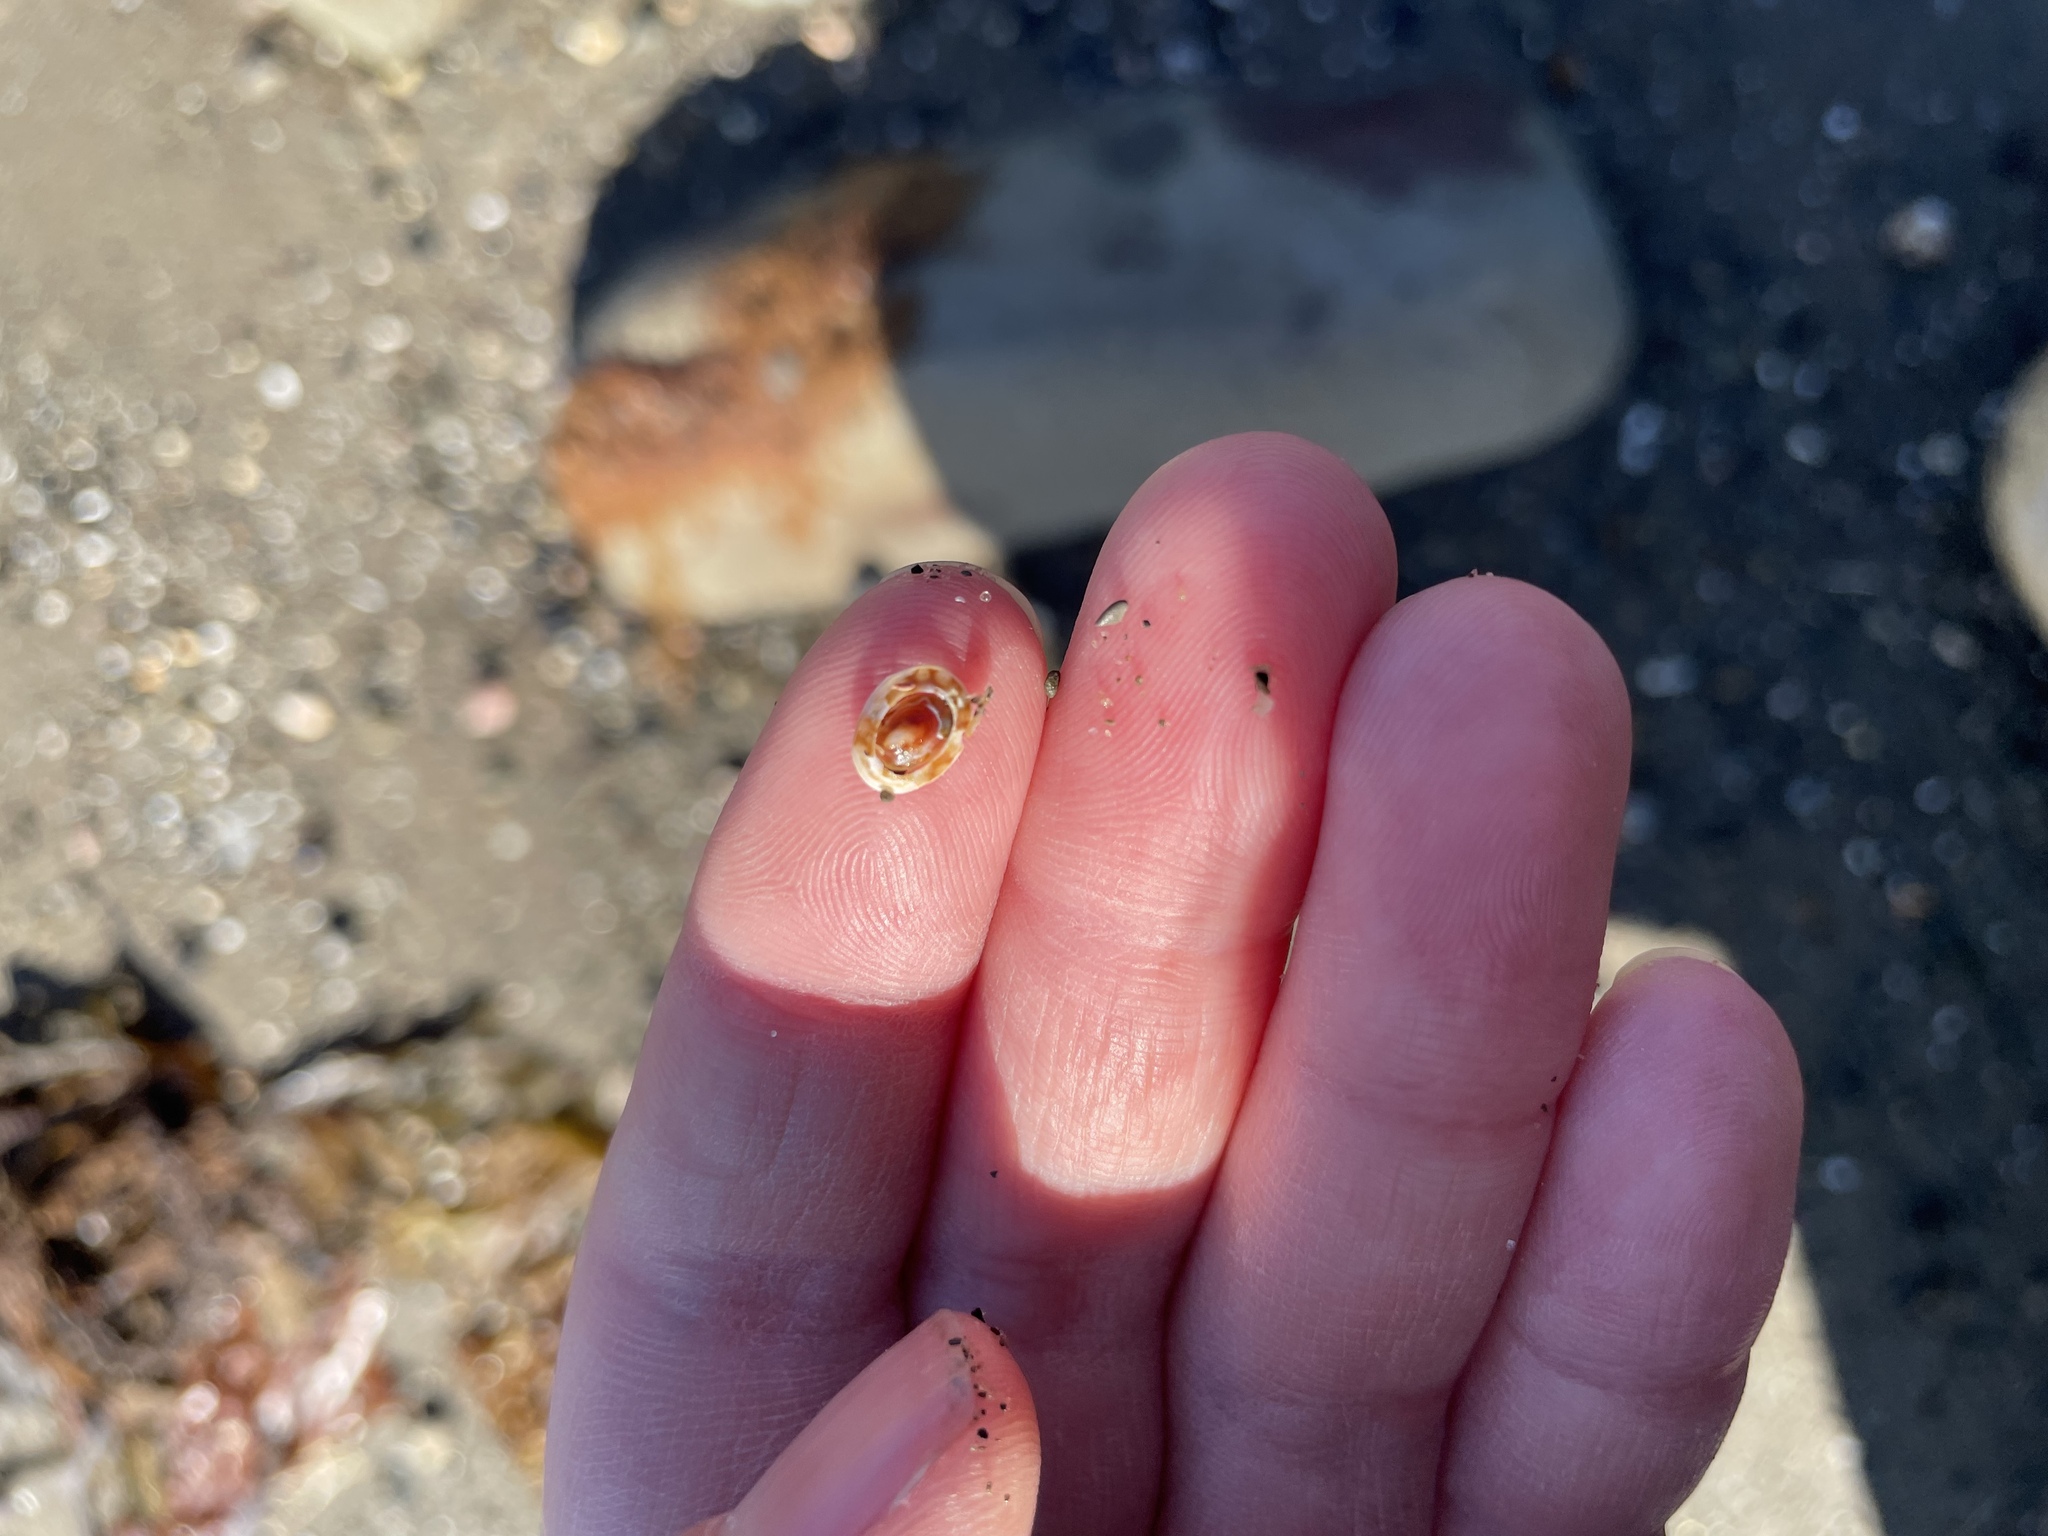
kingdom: Animalia
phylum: Mollusca
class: Gastropoda
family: Lottiidae
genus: Testudinalia
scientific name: Testudinalia testudinalis
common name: Common tortoiseshell limpet
